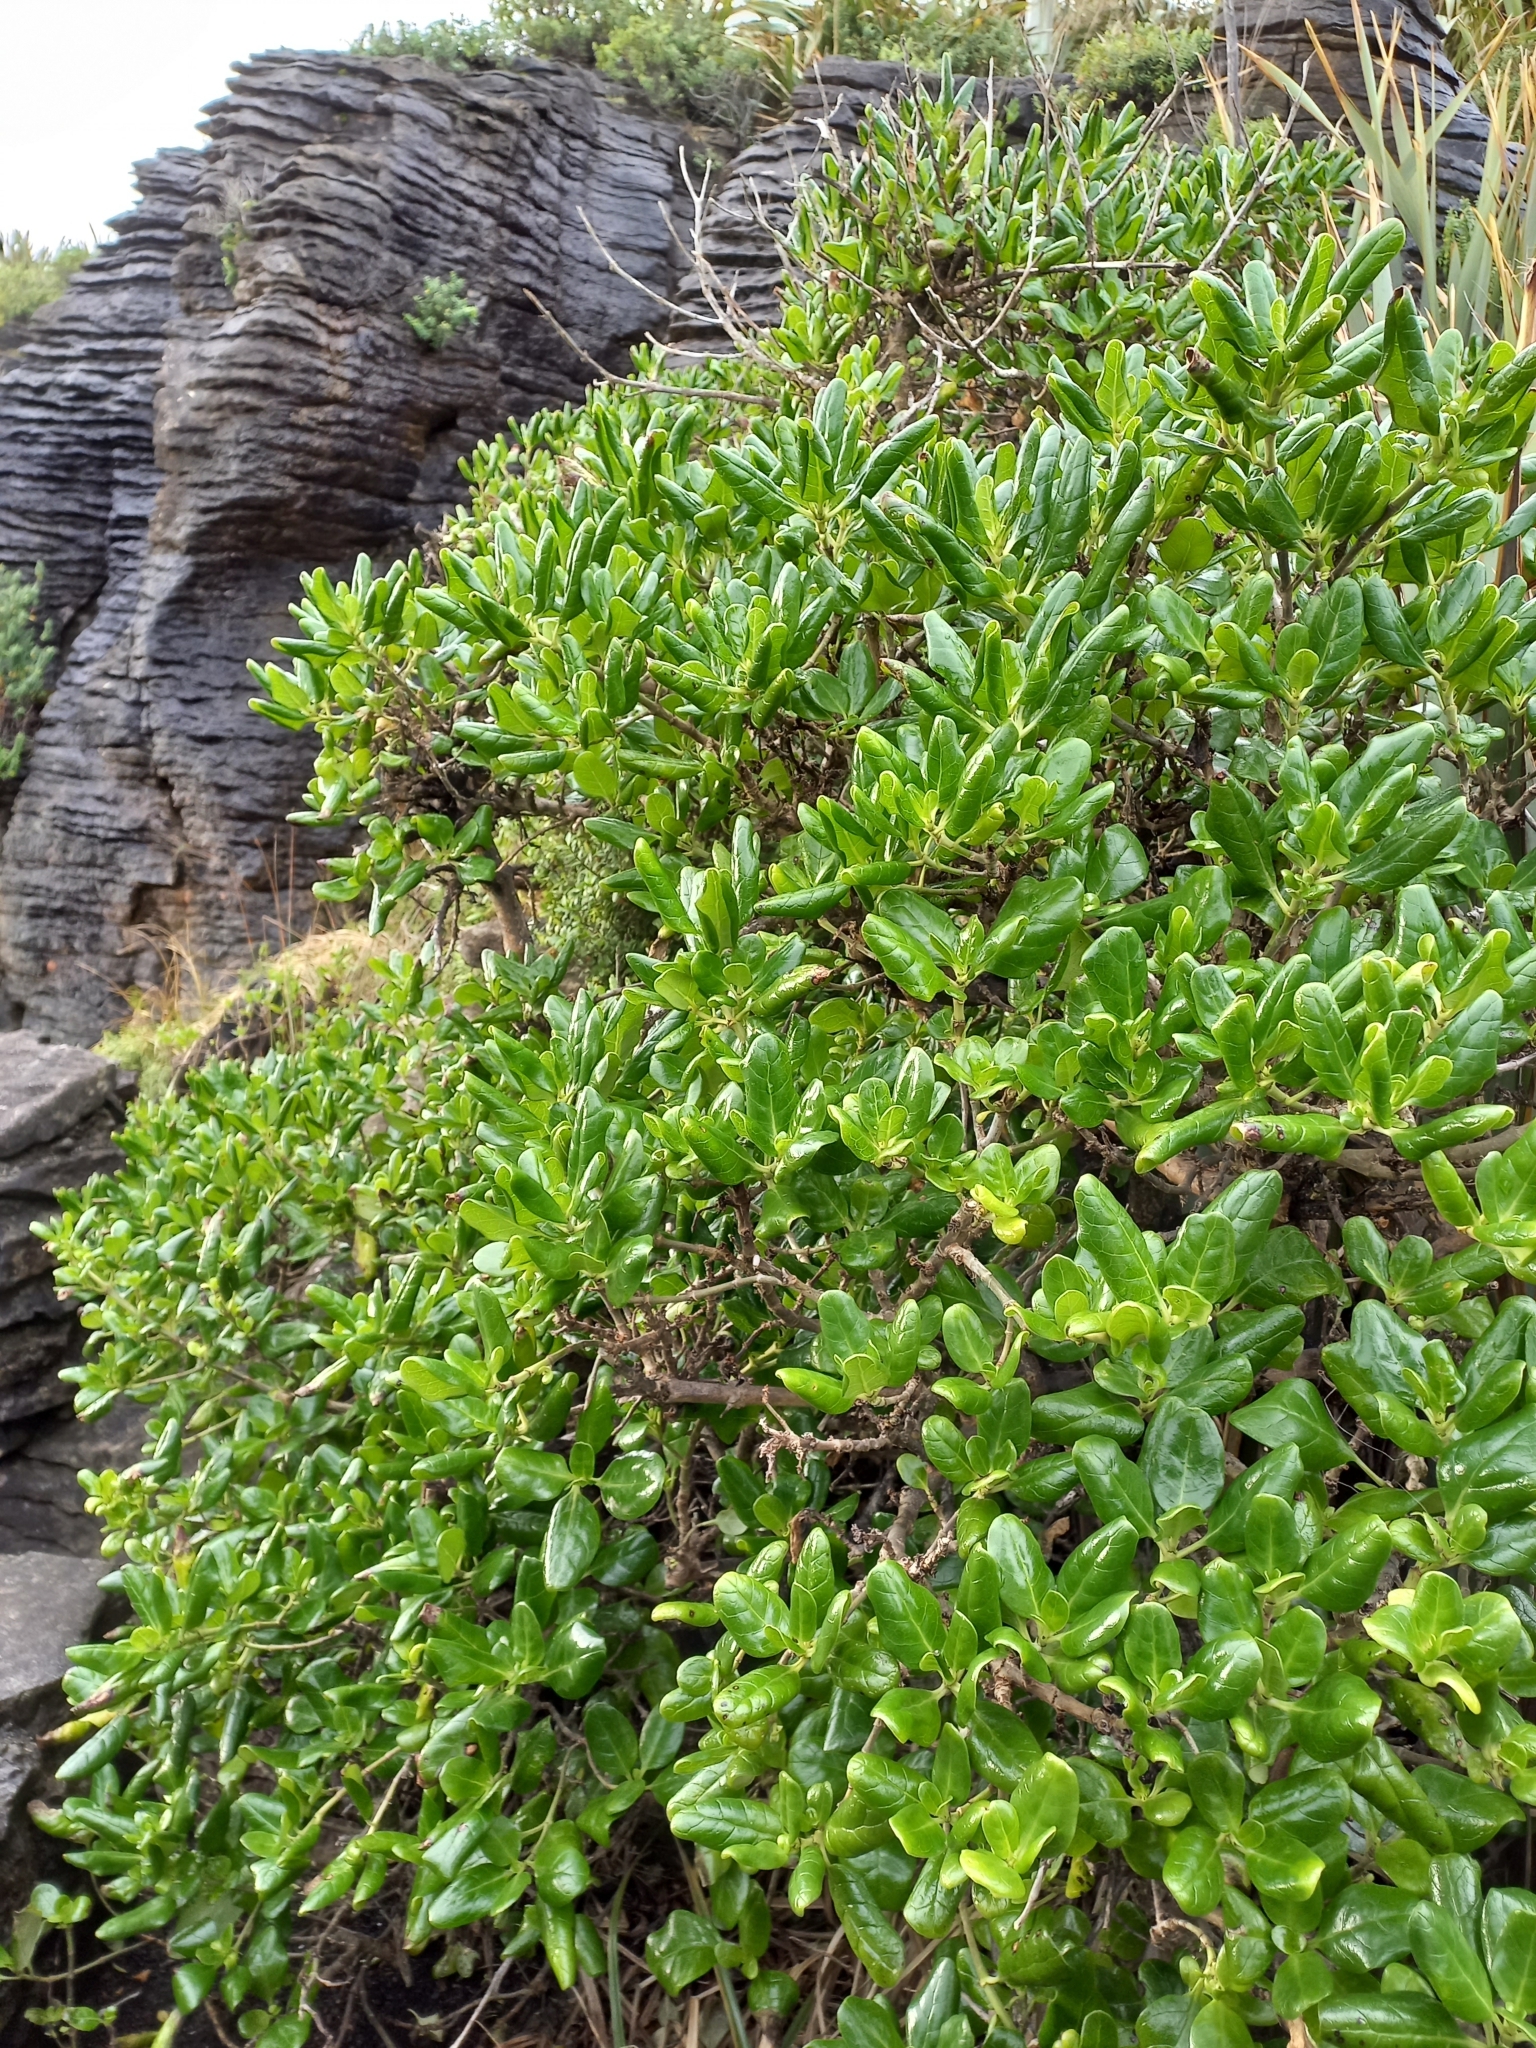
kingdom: Plantae
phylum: Tracheophyta
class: Magnoliopsida
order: Gentianales
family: Rubiaceae
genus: Coprosma
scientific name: Coprosma repens
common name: Tree bedstraw
